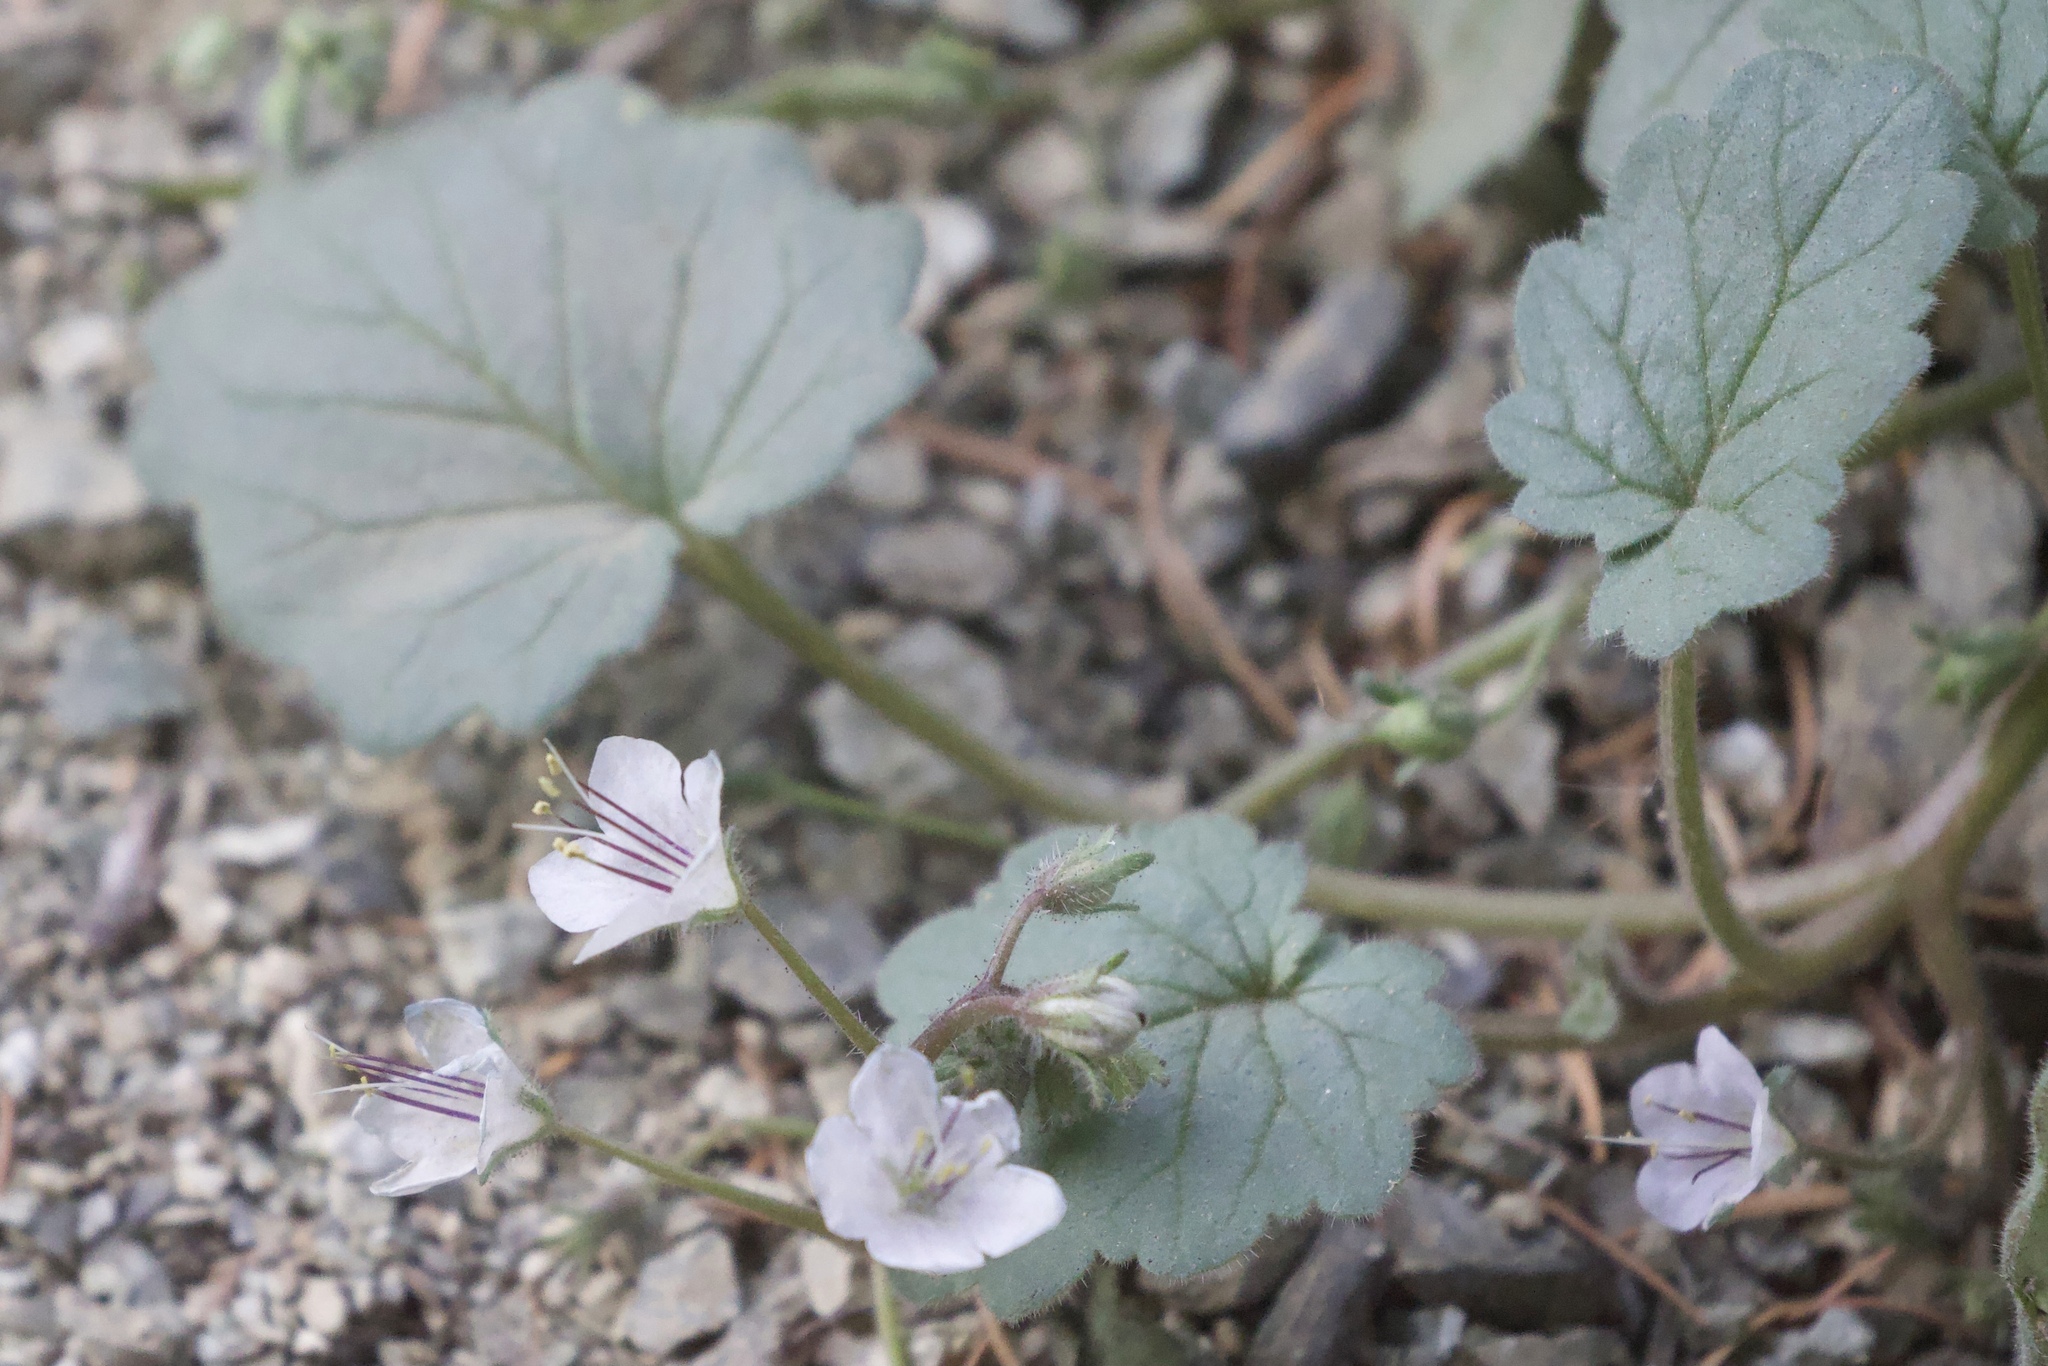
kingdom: Plantae
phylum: Tracheophyta
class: Magnoliopsida
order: Boraginales
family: Hydrophyllaceae
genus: Phacelia
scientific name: Phacelia longipes
